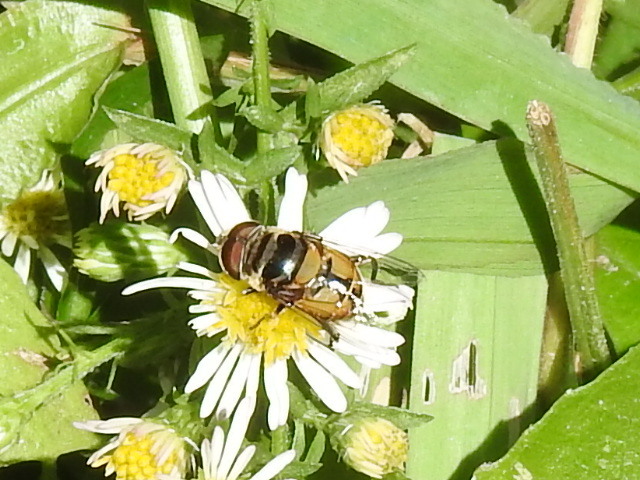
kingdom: Animalia
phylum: Arthropoda
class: Insecta
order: Diptera
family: Syrphidae
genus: Palpada
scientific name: Palpada agrorum
